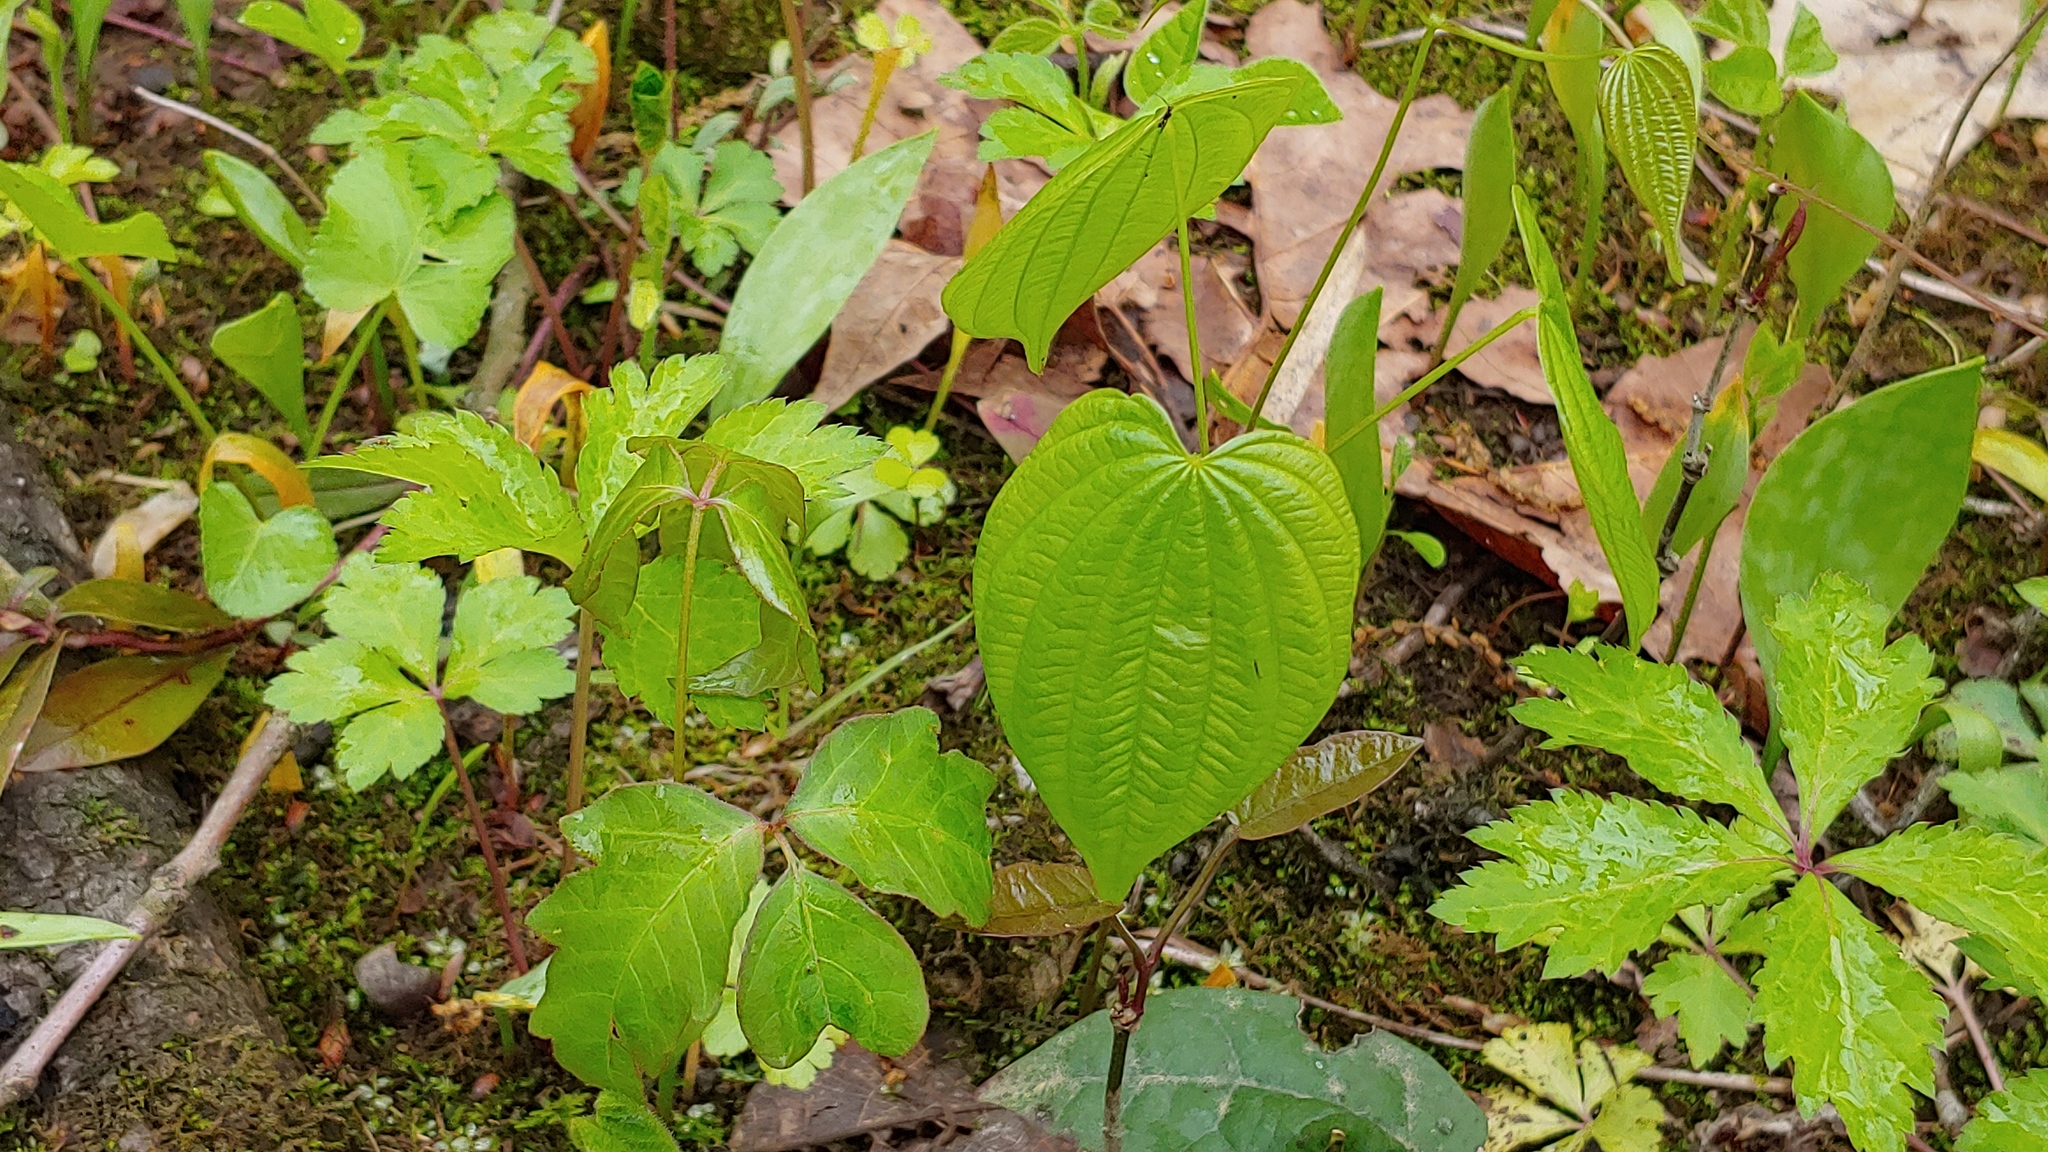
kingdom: Plantae
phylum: Tracheophyta
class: Liliopsida
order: Dioscoreales
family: Dioscoreaceae
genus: Dioscorea
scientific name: Dioscorea villosa
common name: Wild yam
